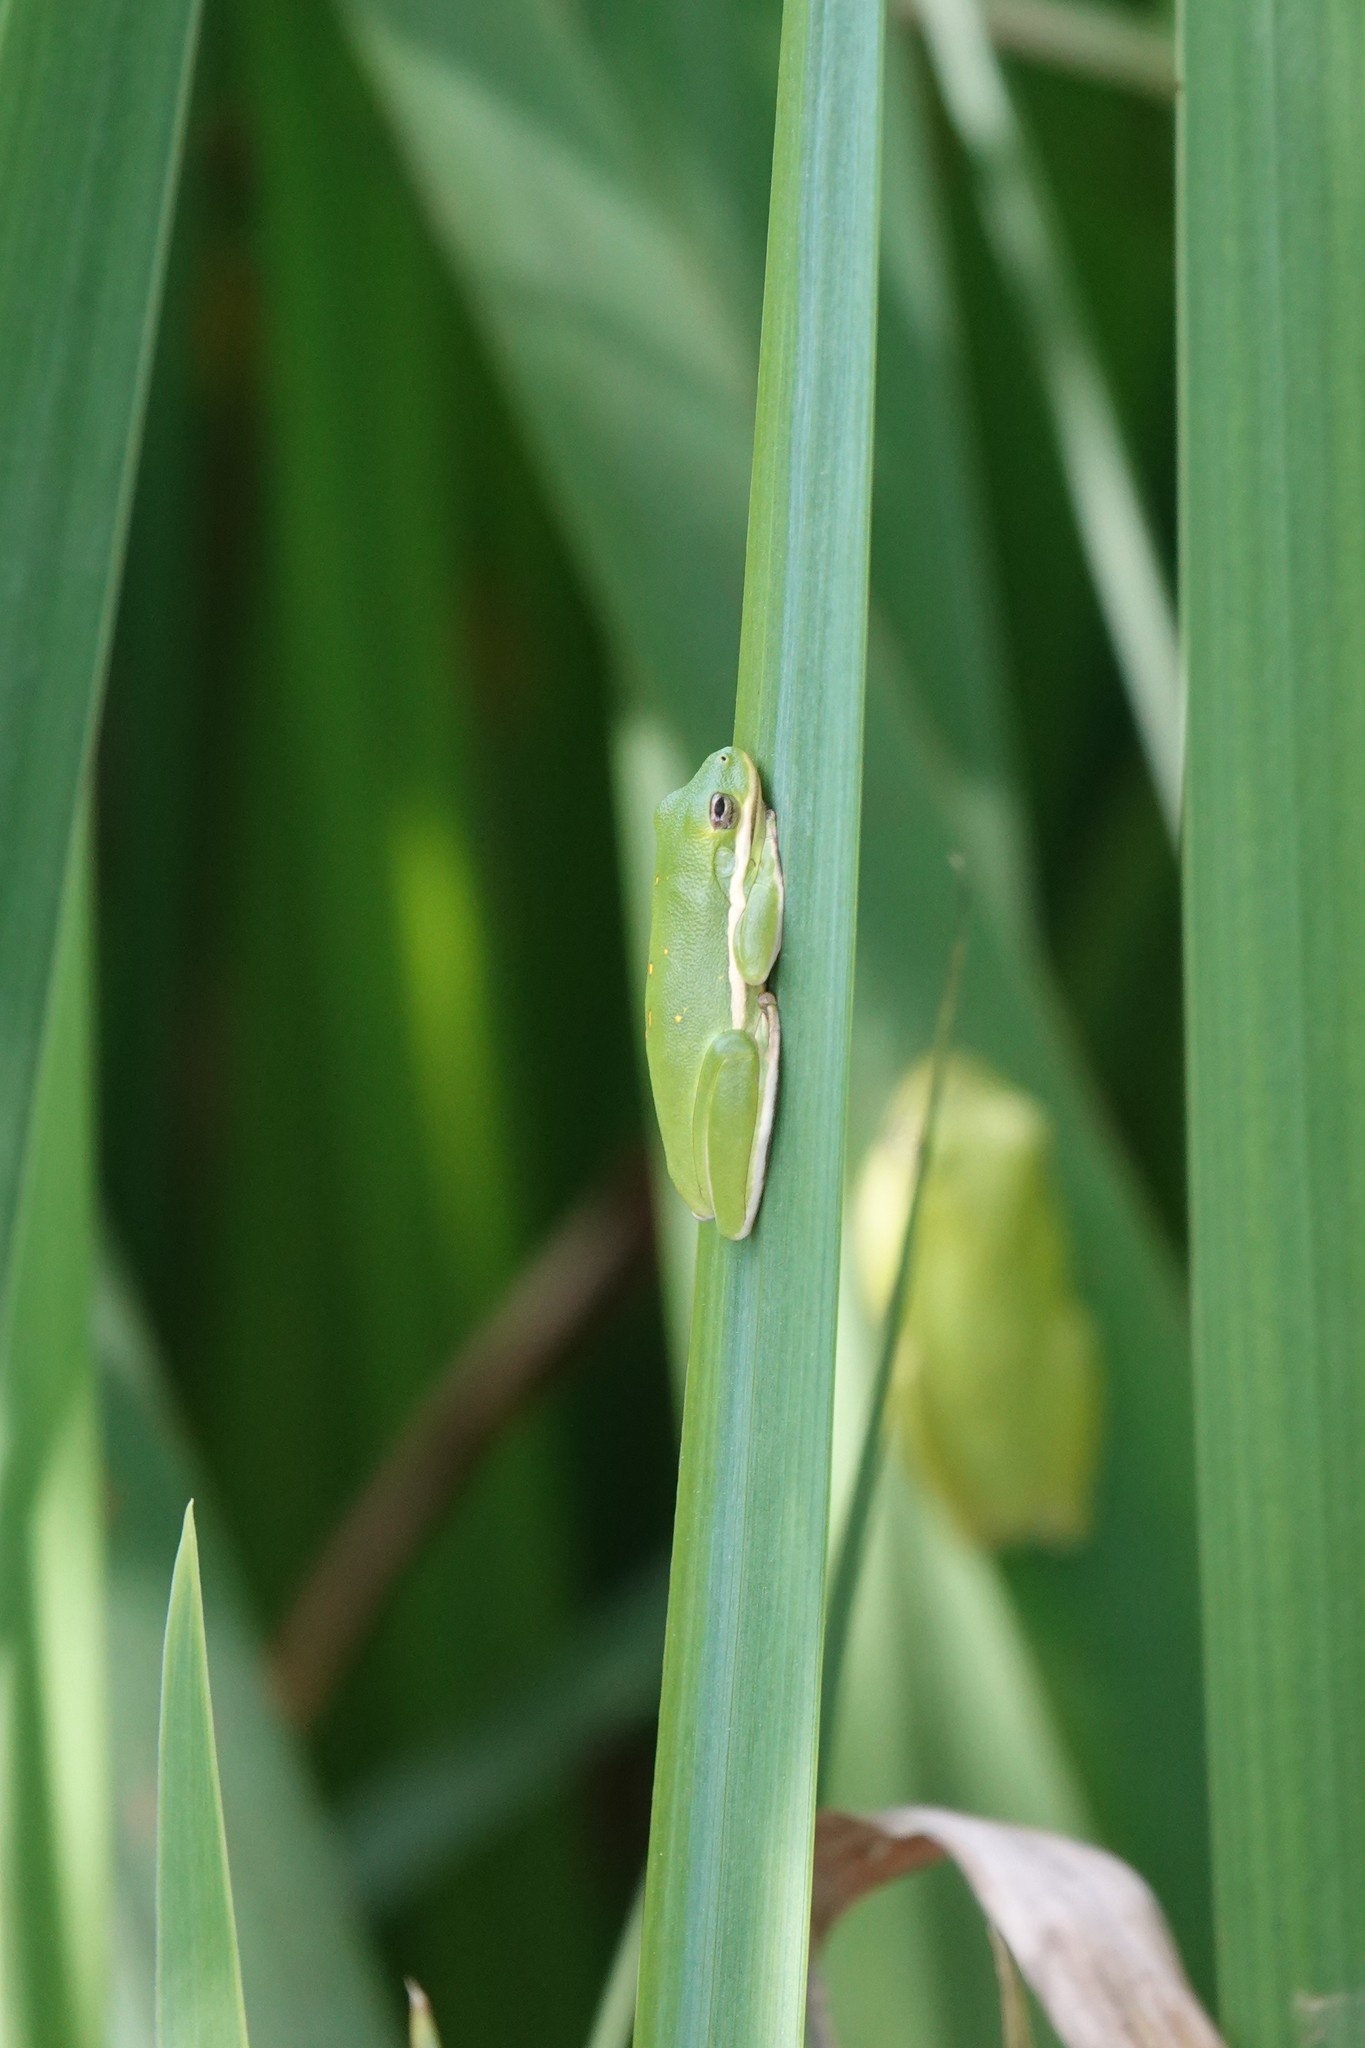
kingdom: Animalia
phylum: Chordata
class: Amphibia
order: Anura
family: Hylidae
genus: Dryophytes
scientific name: Dryophytes cinereus
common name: Green treefrog
